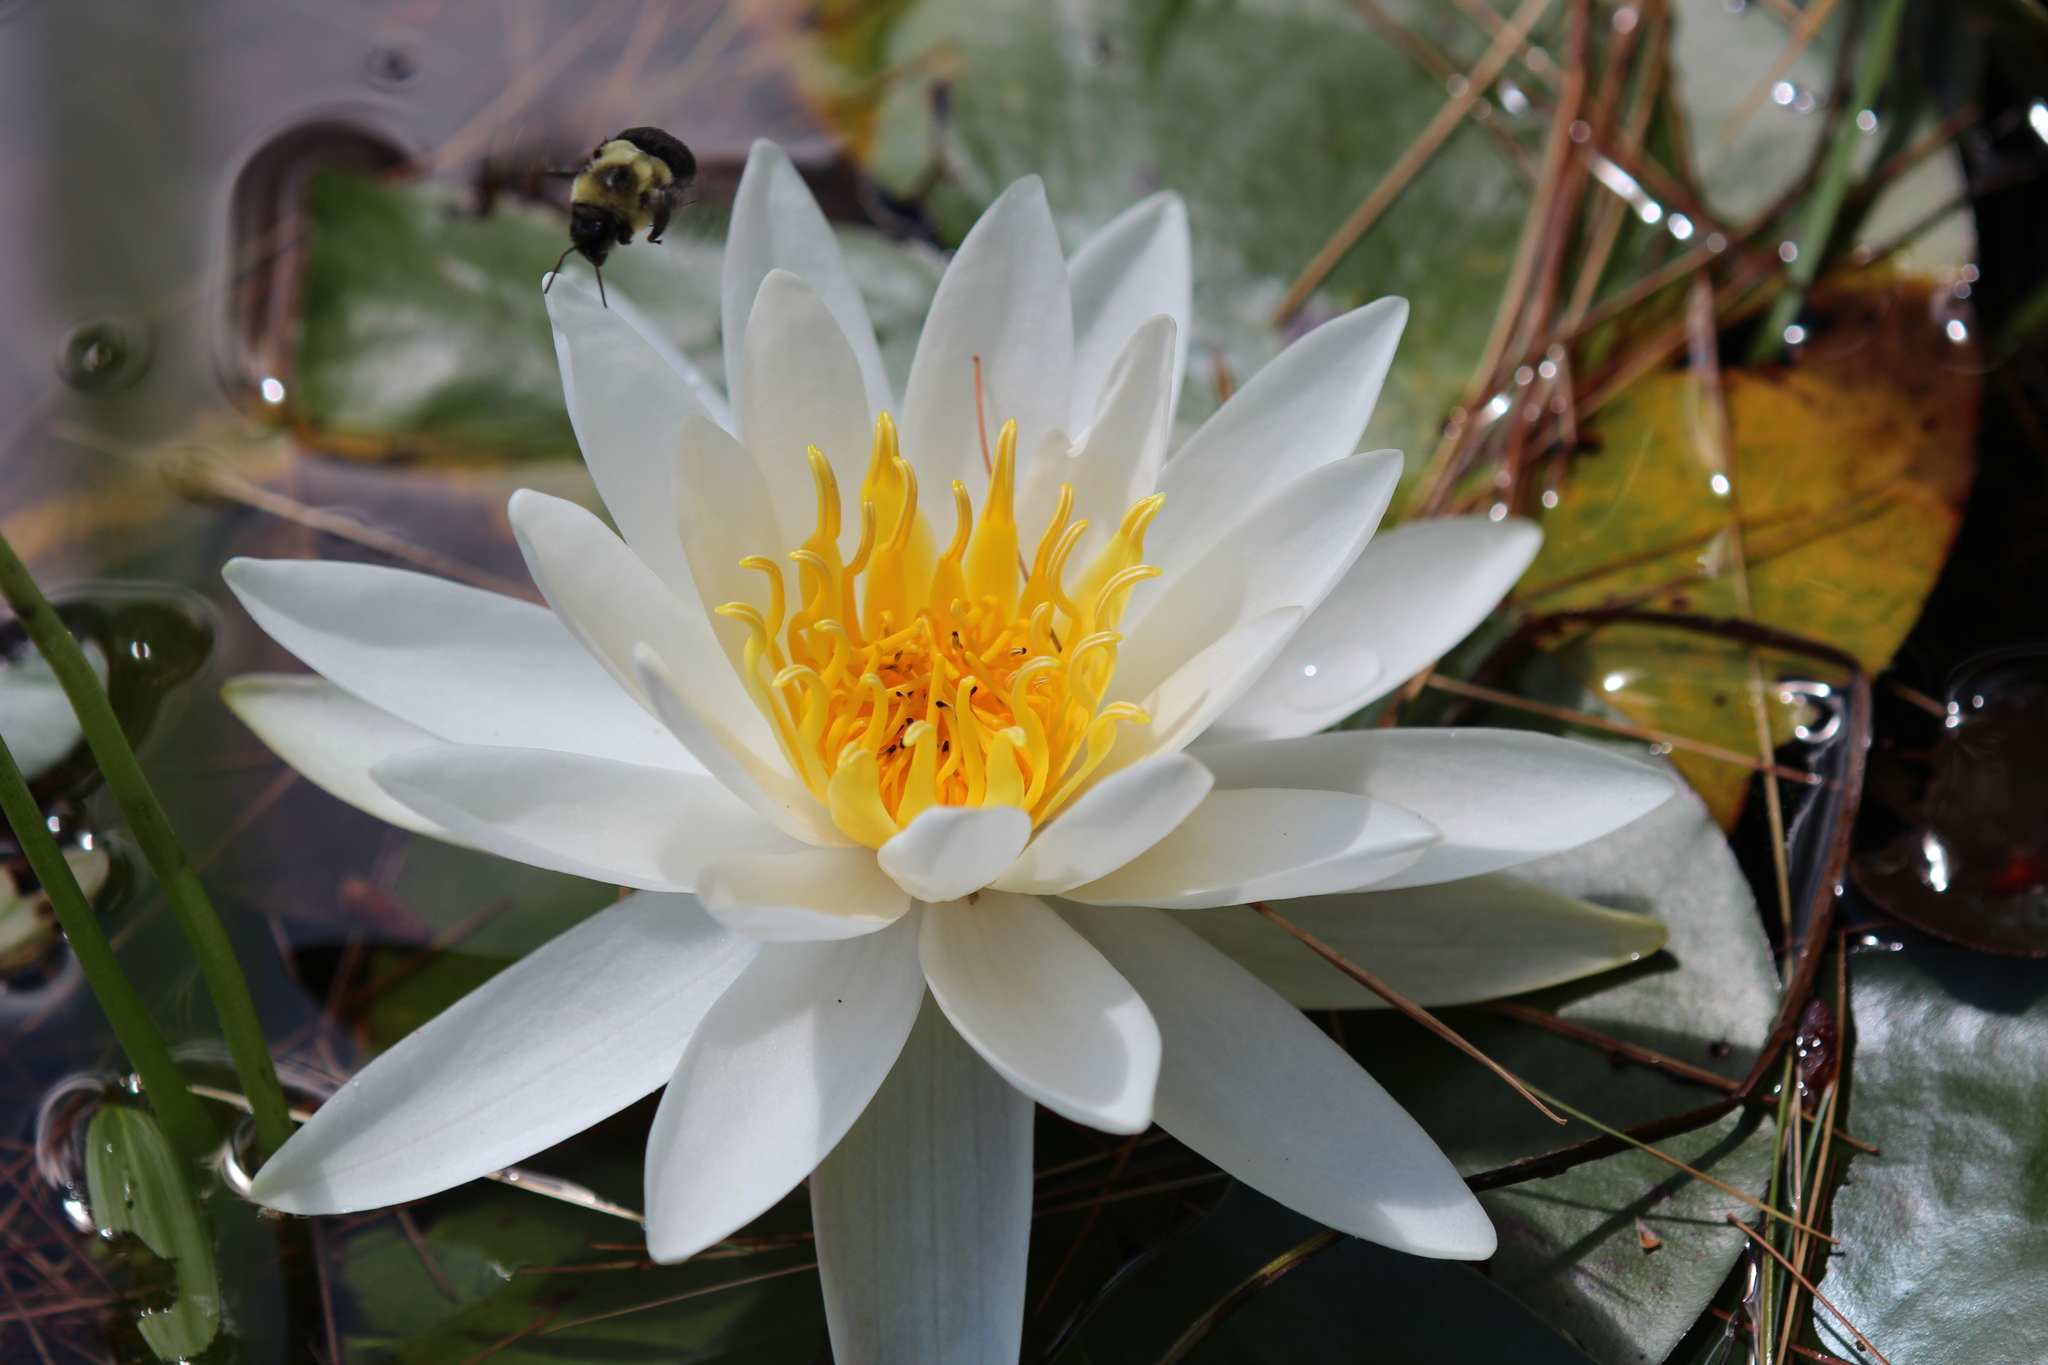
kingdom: Plantae
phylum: Tracheophyta
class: Magnoliopsida
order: Nymphaeales
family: Nymphaeaceae
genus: Nymphaea
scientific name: Nymphaea odorata
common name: Fragrant water-lily
